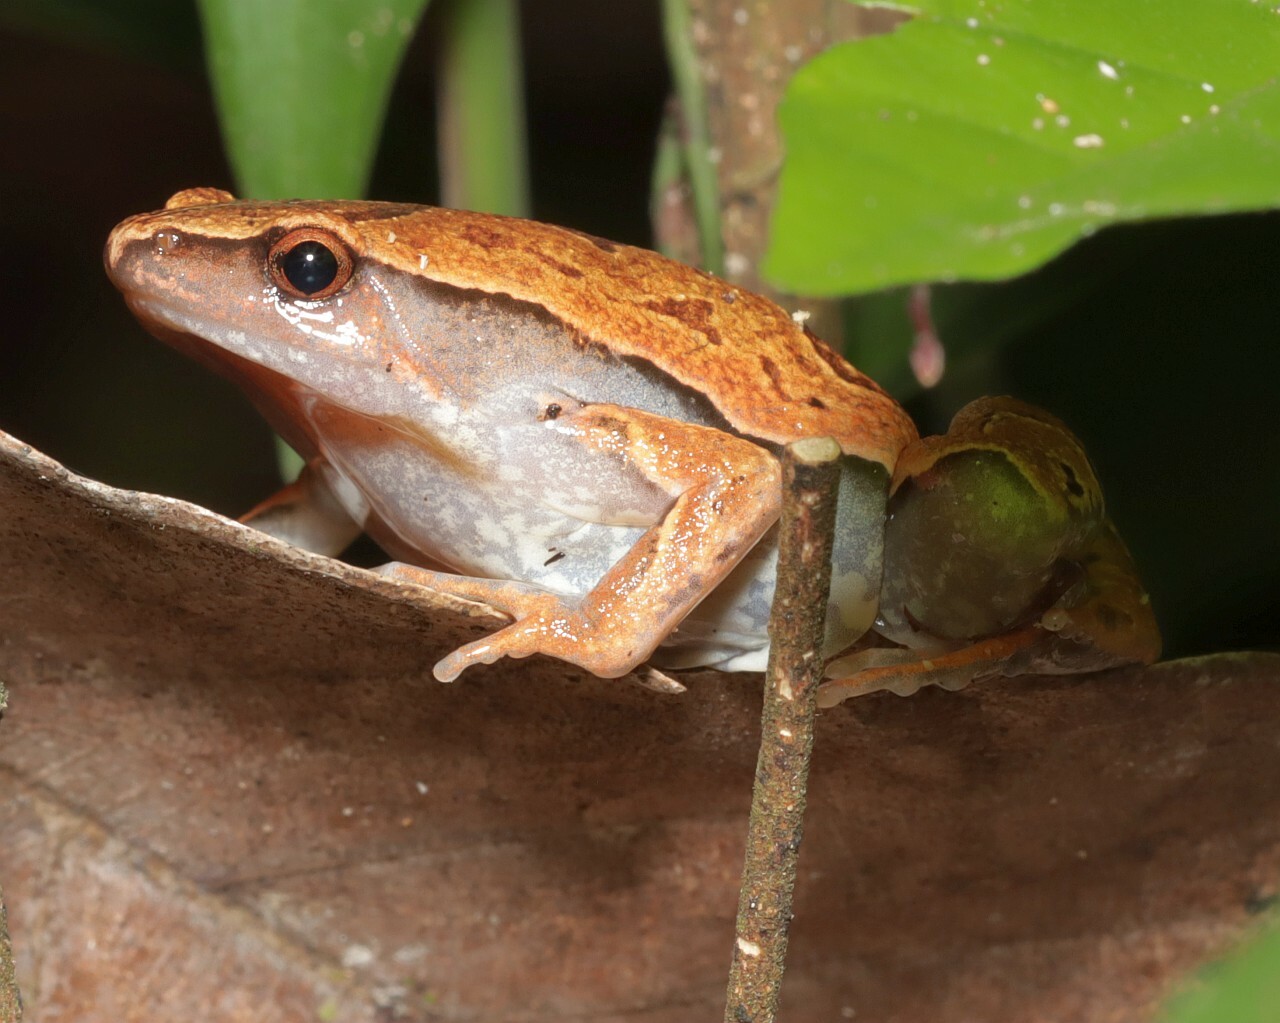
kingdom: Animalia
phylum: Chordata
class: Amphibia
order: Anura
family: Microhylidae
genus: Hamptophryne
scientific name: Hamptophryne boliviana
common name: Bolivian bleating frog
